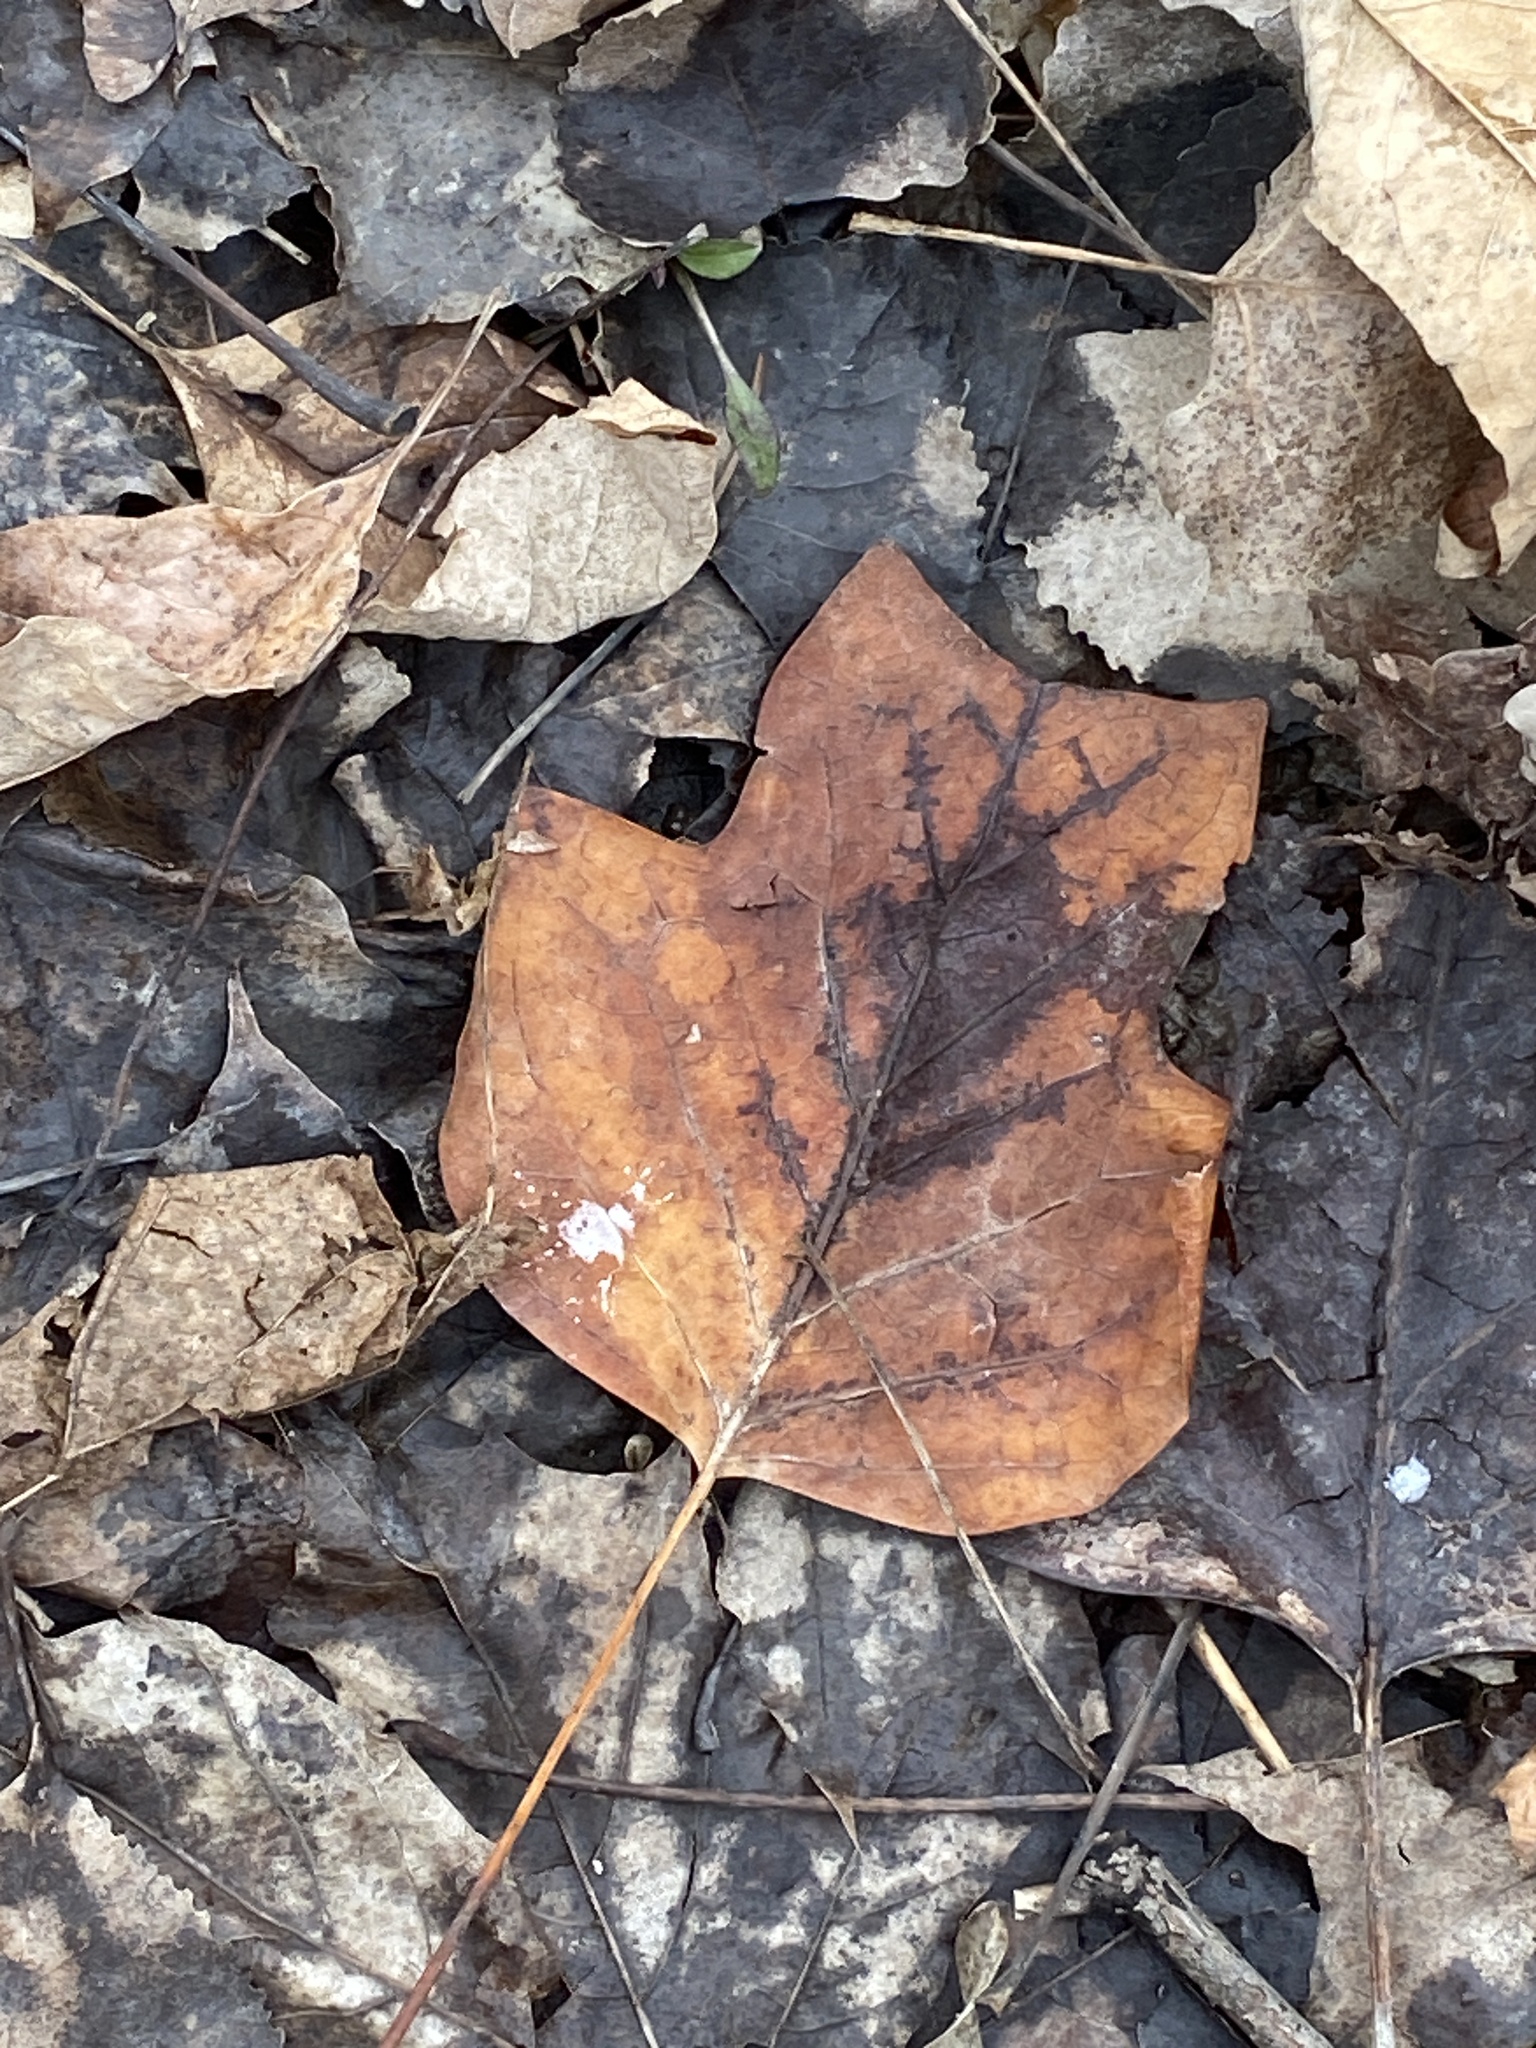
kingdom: Plantae
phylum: Tracheophyta
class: Magnoliopsida
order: Magnoliales
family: Magnoliaceae
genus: Liriodendron
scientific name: Liriodendron tulipifera
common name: Tulip tree
